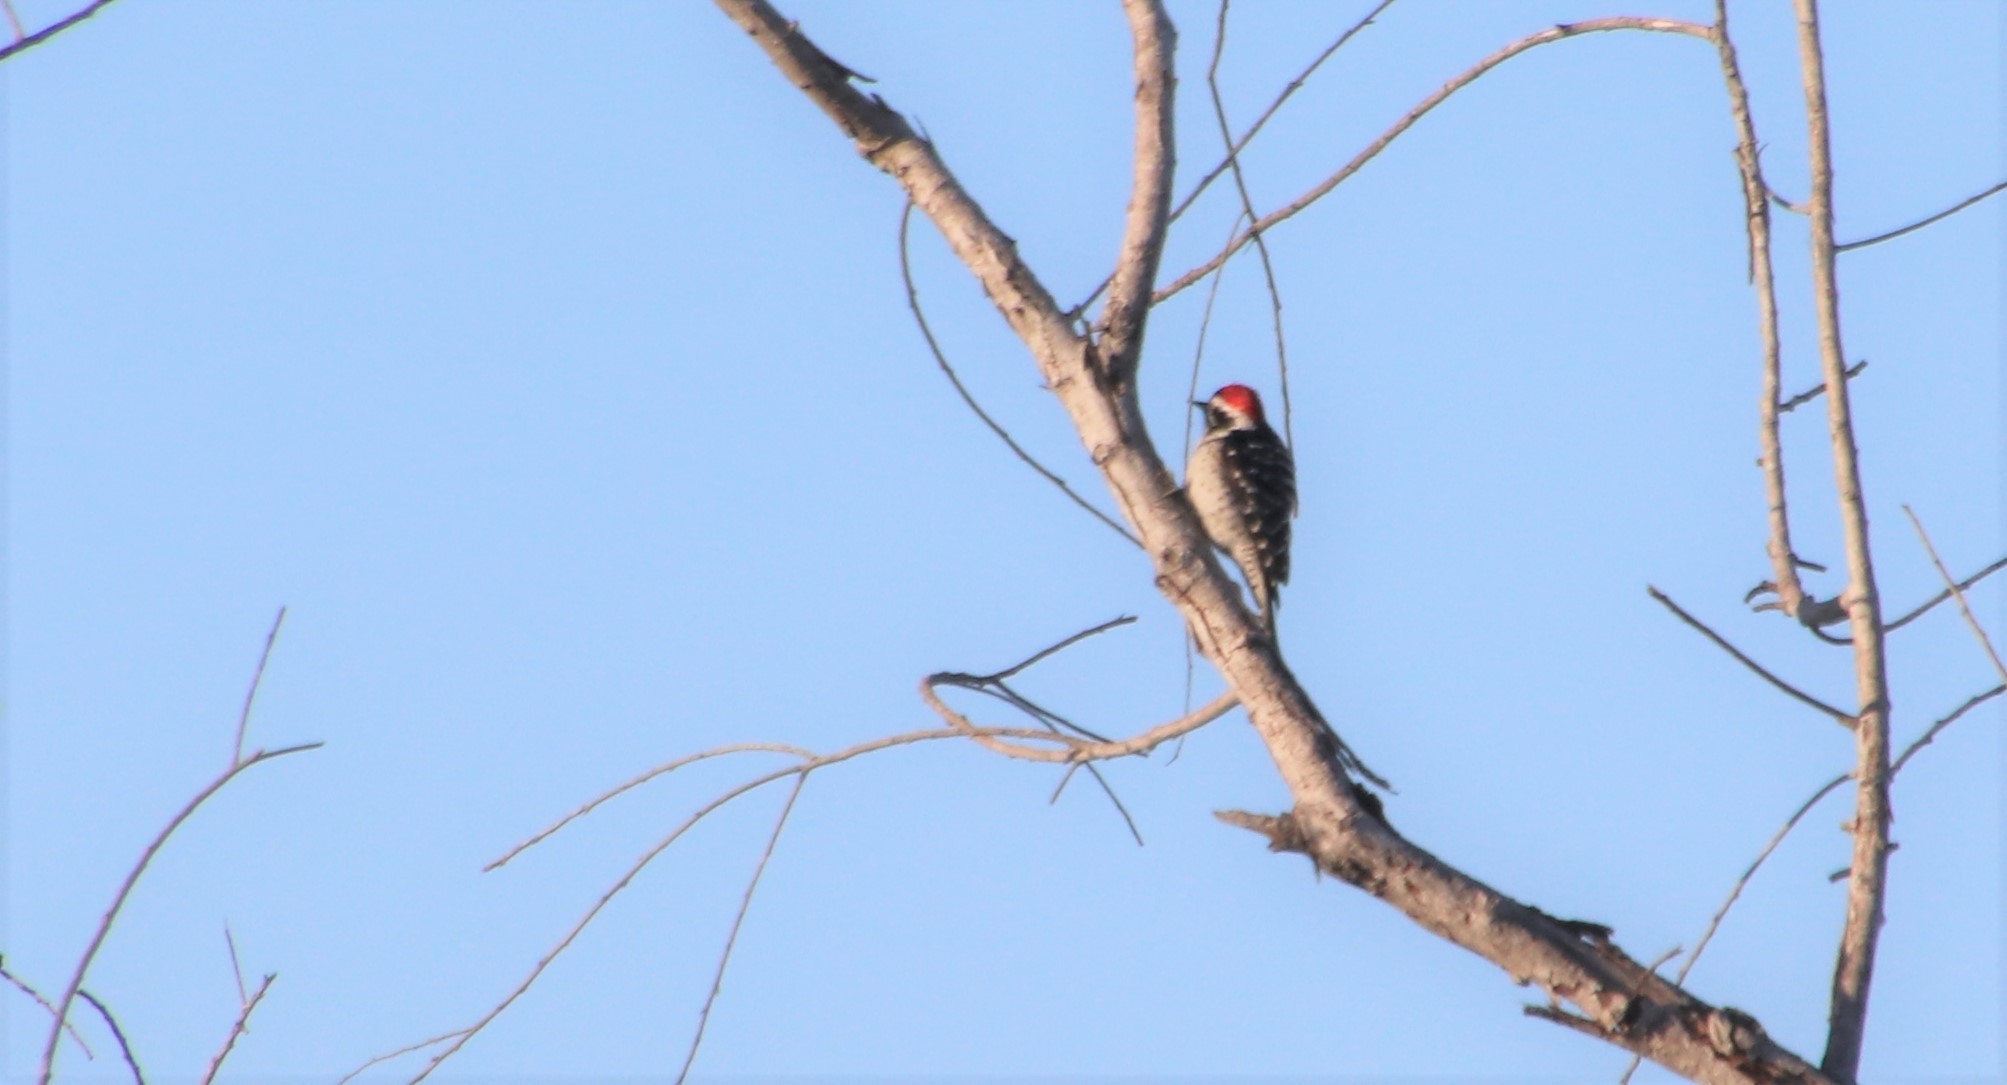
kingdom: Animalia
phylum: Chordata
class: Aves
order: Piciformes
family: Picidae
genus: Dryobates
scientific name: Dryobates nuttallii
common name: Nuttall's woodpecker
